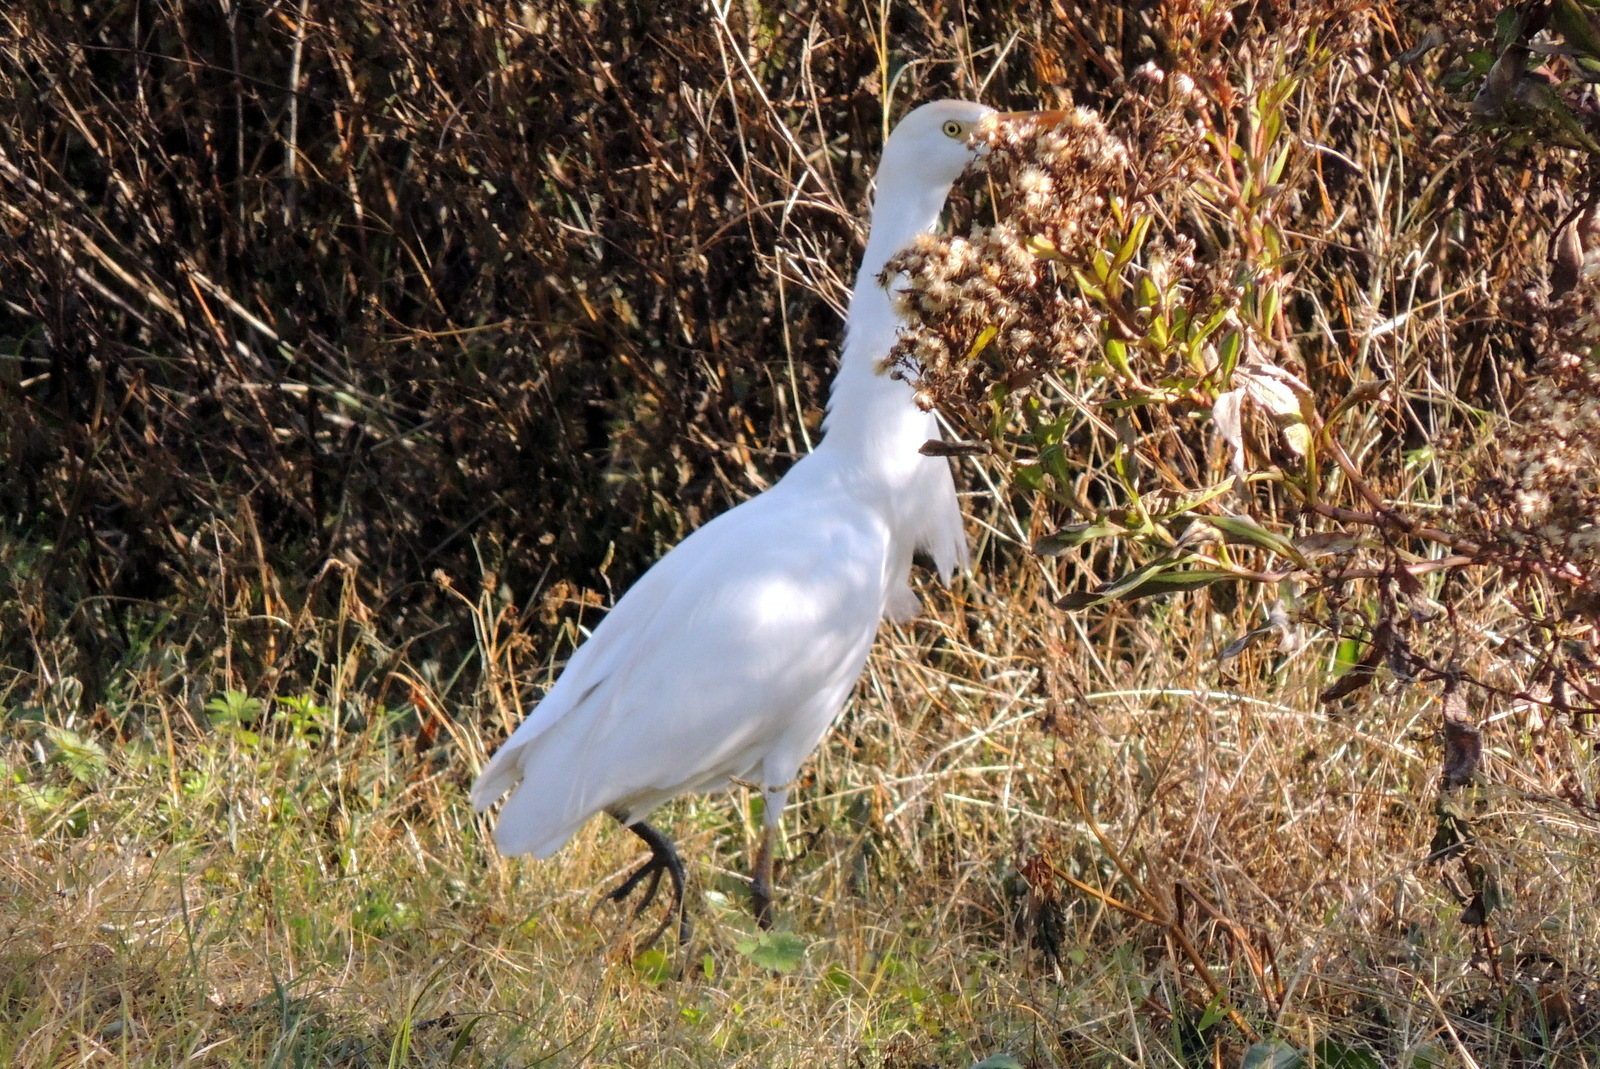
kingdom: Animalia
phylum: Chordata
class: Aves
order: Pelecaniformes
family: Ardeidae
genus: Bubulcus
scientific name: Bubulcus ibis
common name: Cattle egret
